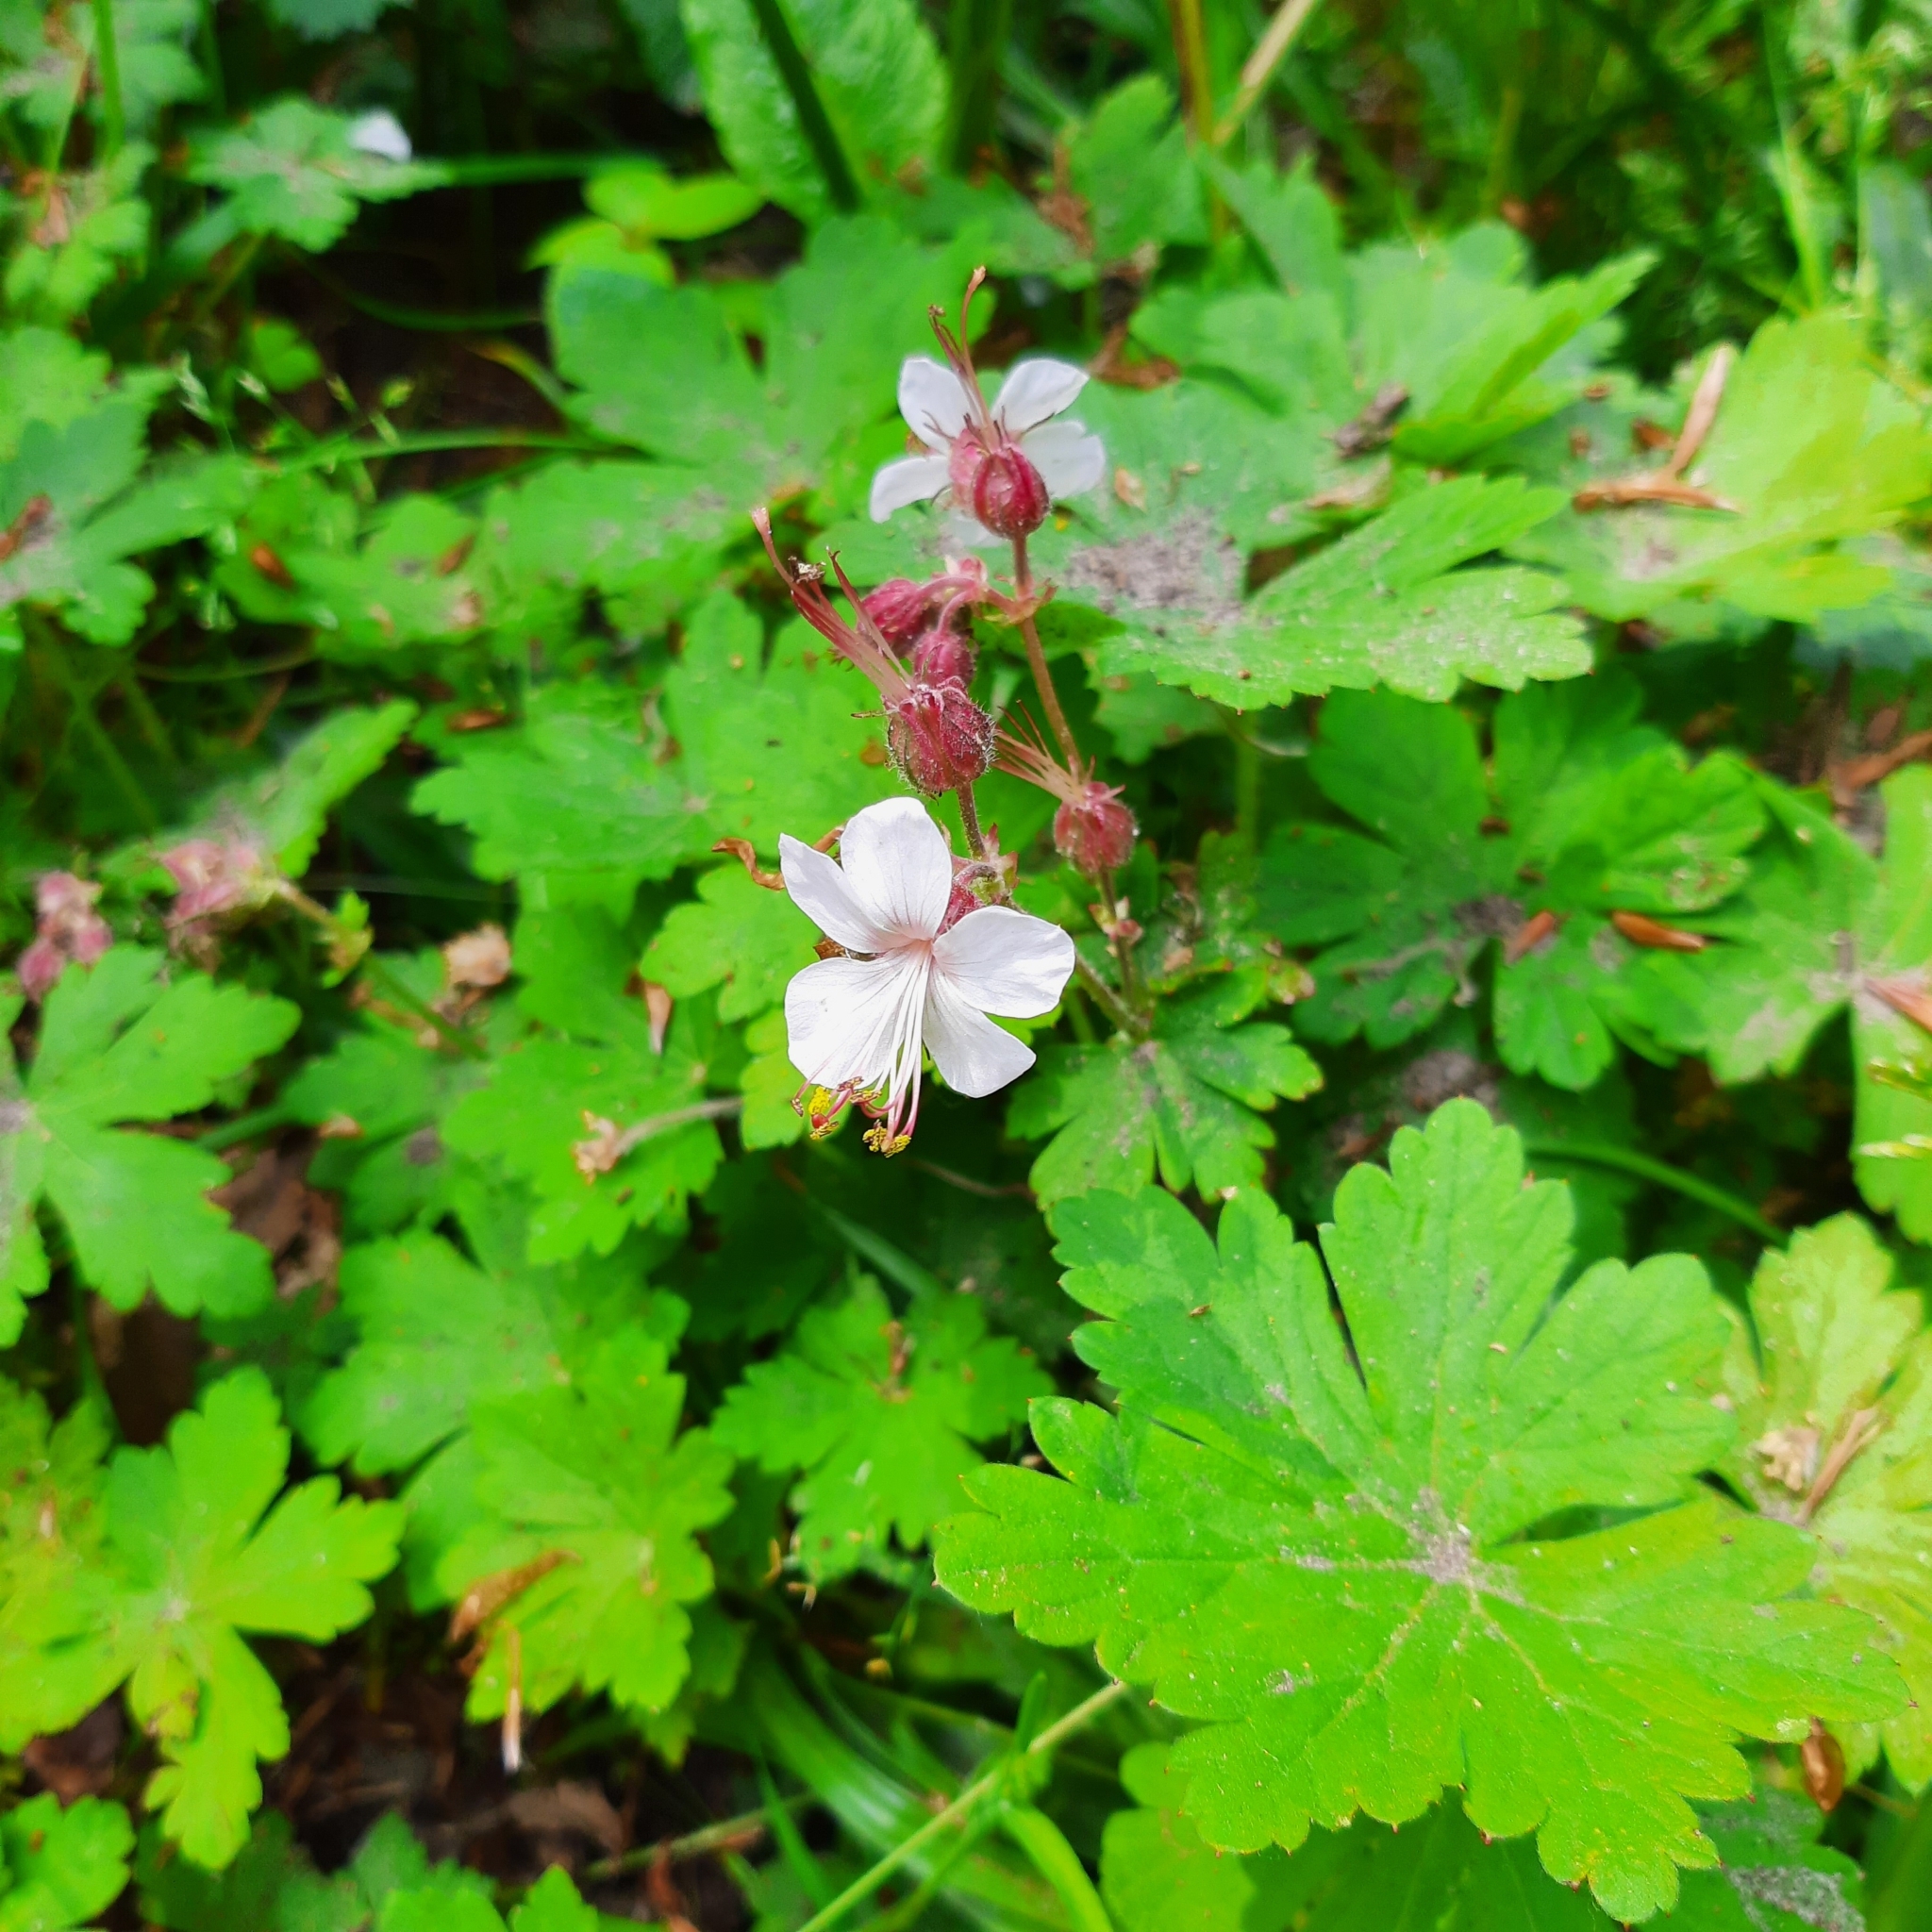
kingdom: Plantae
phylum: Tracheophyta
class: Magnoliopsida
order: Geraniales
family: Geraniaceae
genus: Geranium
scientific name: Geranium macrorrhizum
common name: Rock crane's-bill
